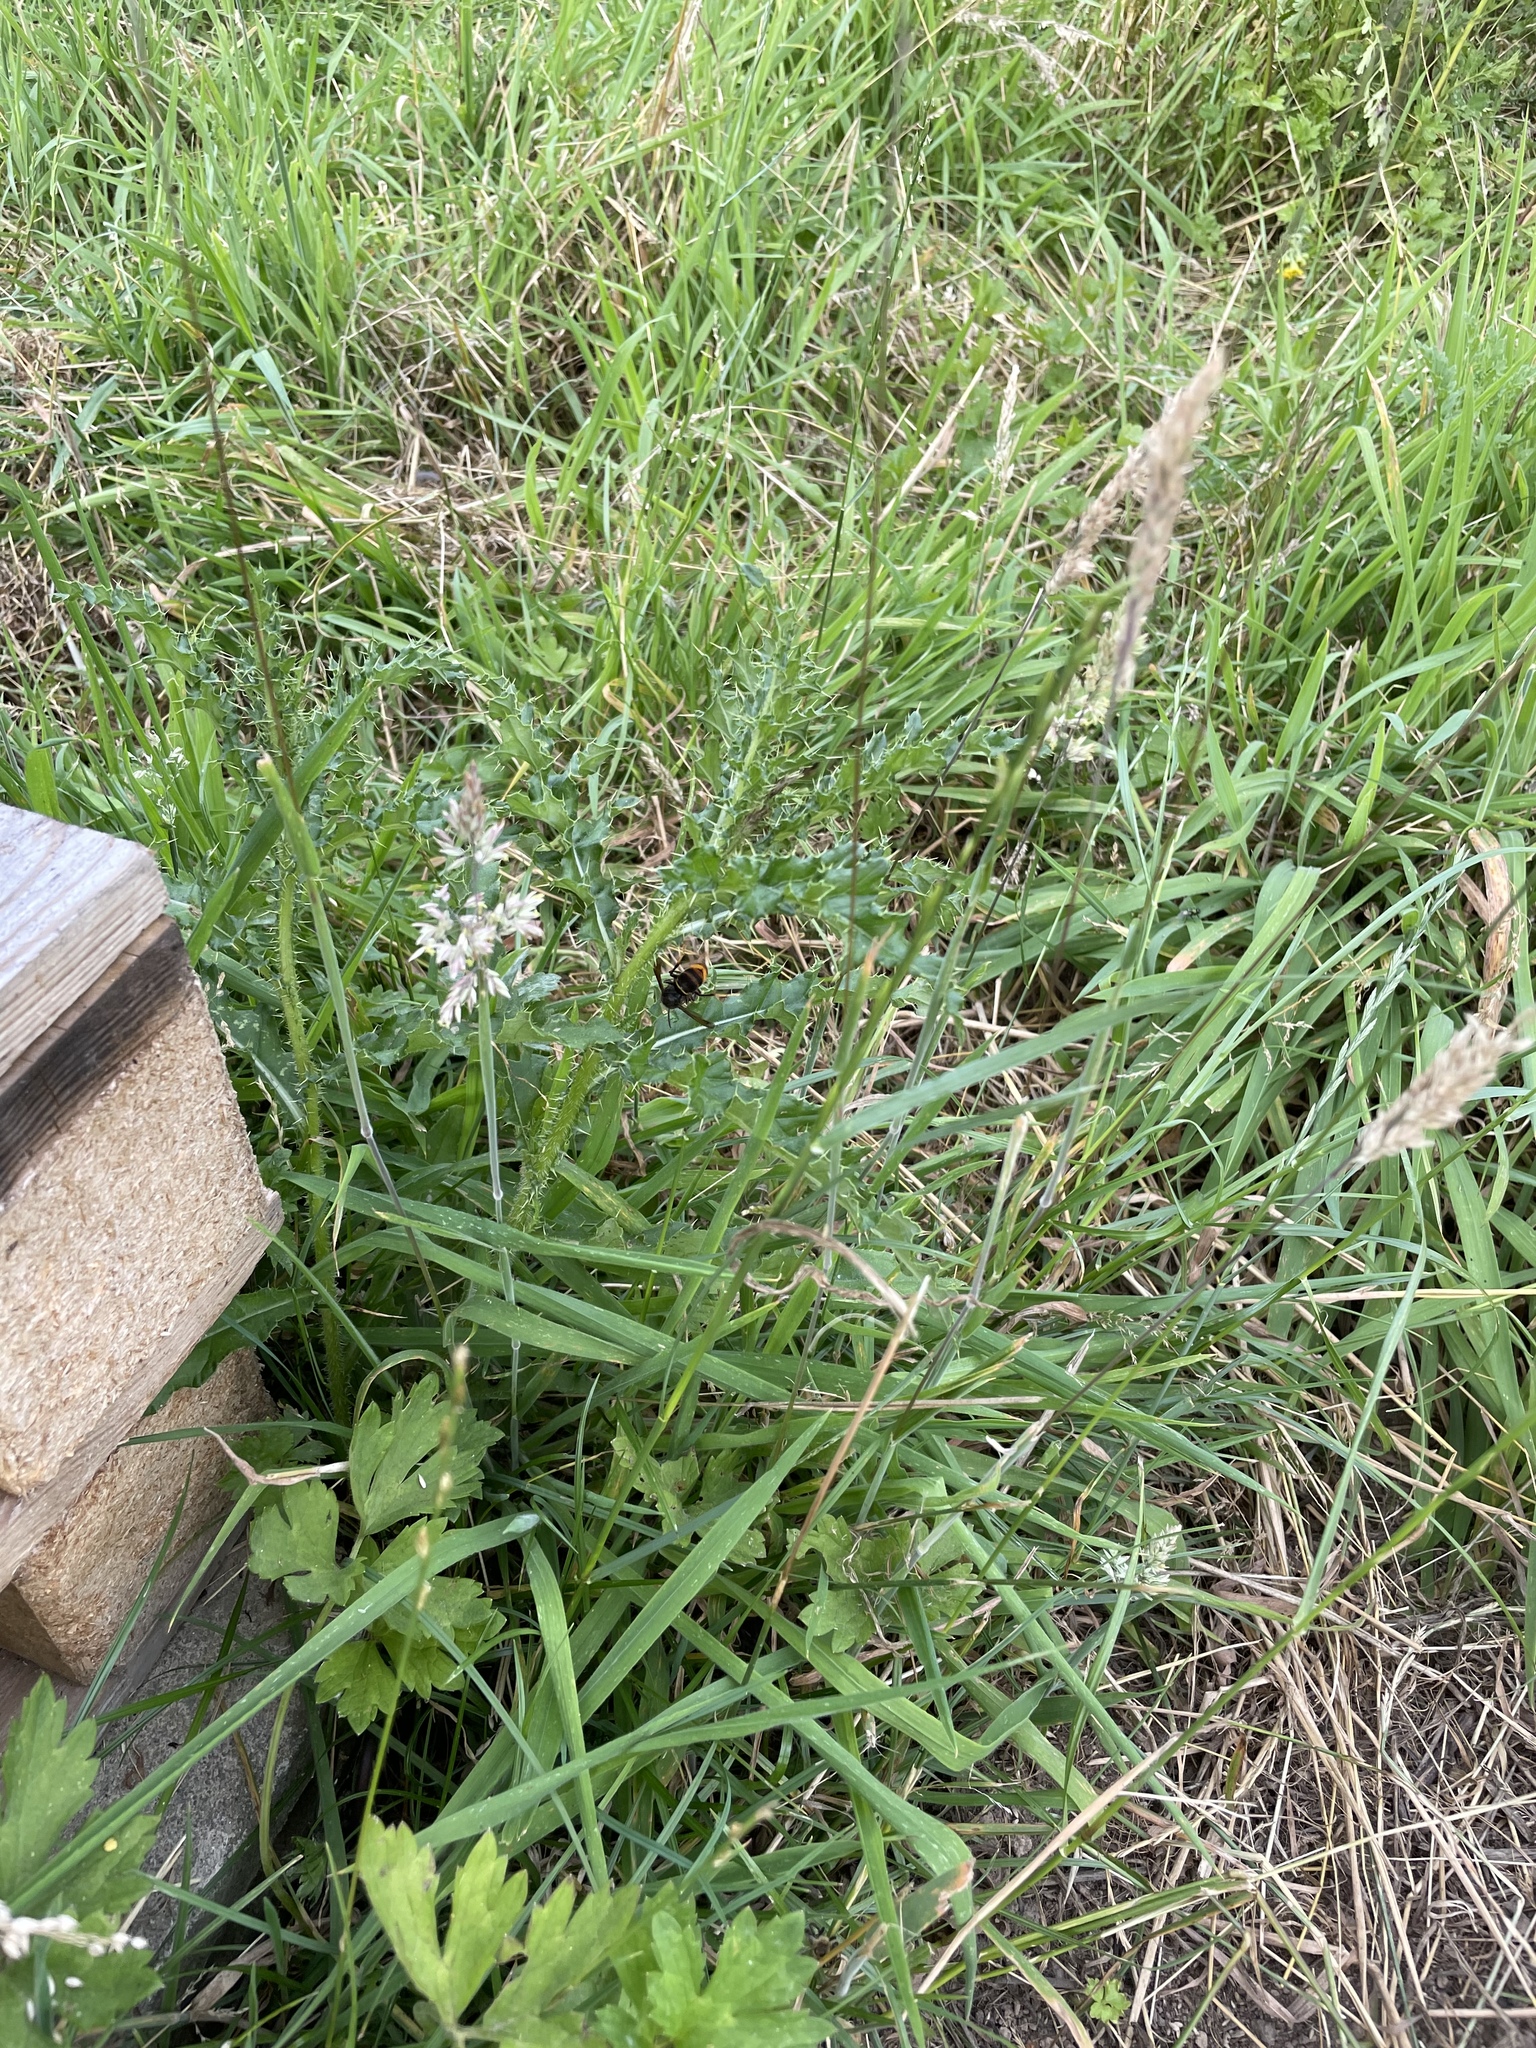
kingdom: Animalia
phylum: Arthropoda
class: Insecta
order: Hymenoptera
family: Vespidae
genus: Vespa
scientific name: Vespa velutina
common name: Asian hornet
